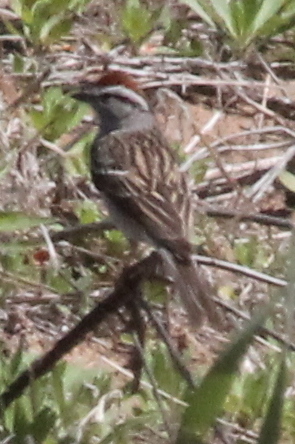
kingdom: Animalia
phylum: Chordata
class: Aves
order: Passeriformes
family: Passerellidae
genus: Spizella
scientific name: Spizella passerina
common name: Chipping sparrow
